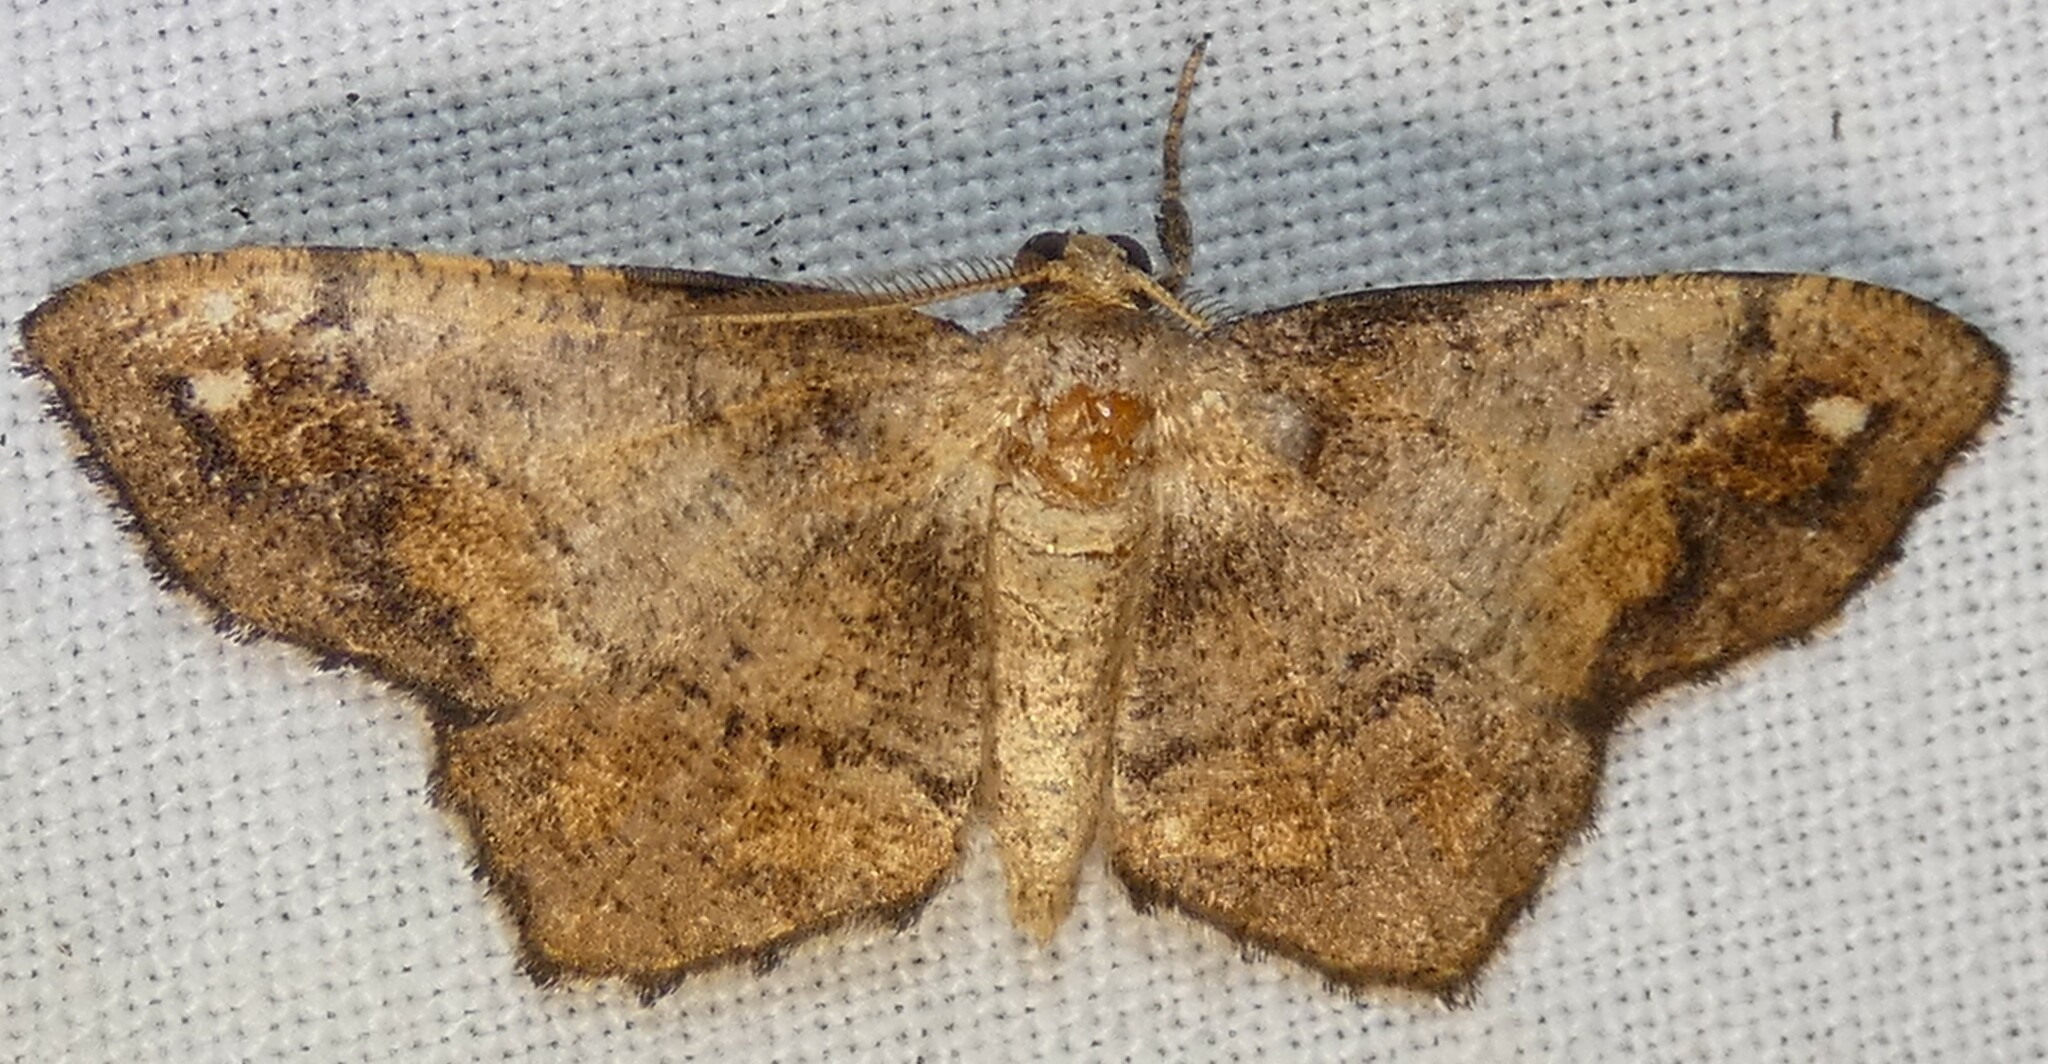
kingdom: Animalia
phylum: Arthropoda
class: Insecta
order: Lepidoptera
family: Geometridae
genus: Hypagyrtis
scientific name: Hypagyrtis unipunctata
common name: One-spotted variant
